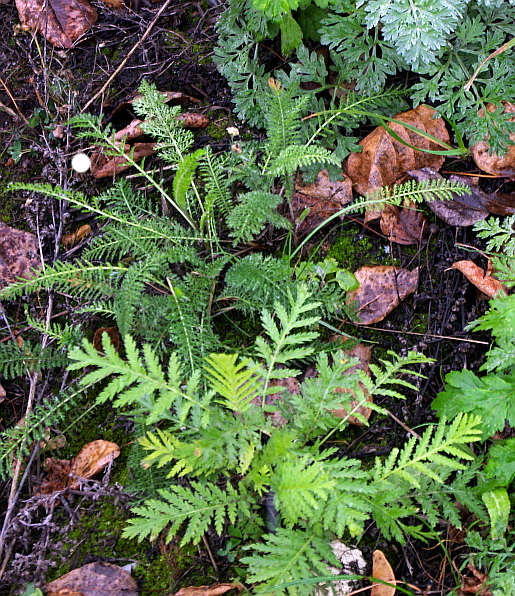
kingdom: Plantae
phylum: Tracheophyta
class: Magnoliopsida
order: Asterales
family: Asteraceae
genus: Achillea
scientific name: Achillea millefolium
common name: Yarrow
